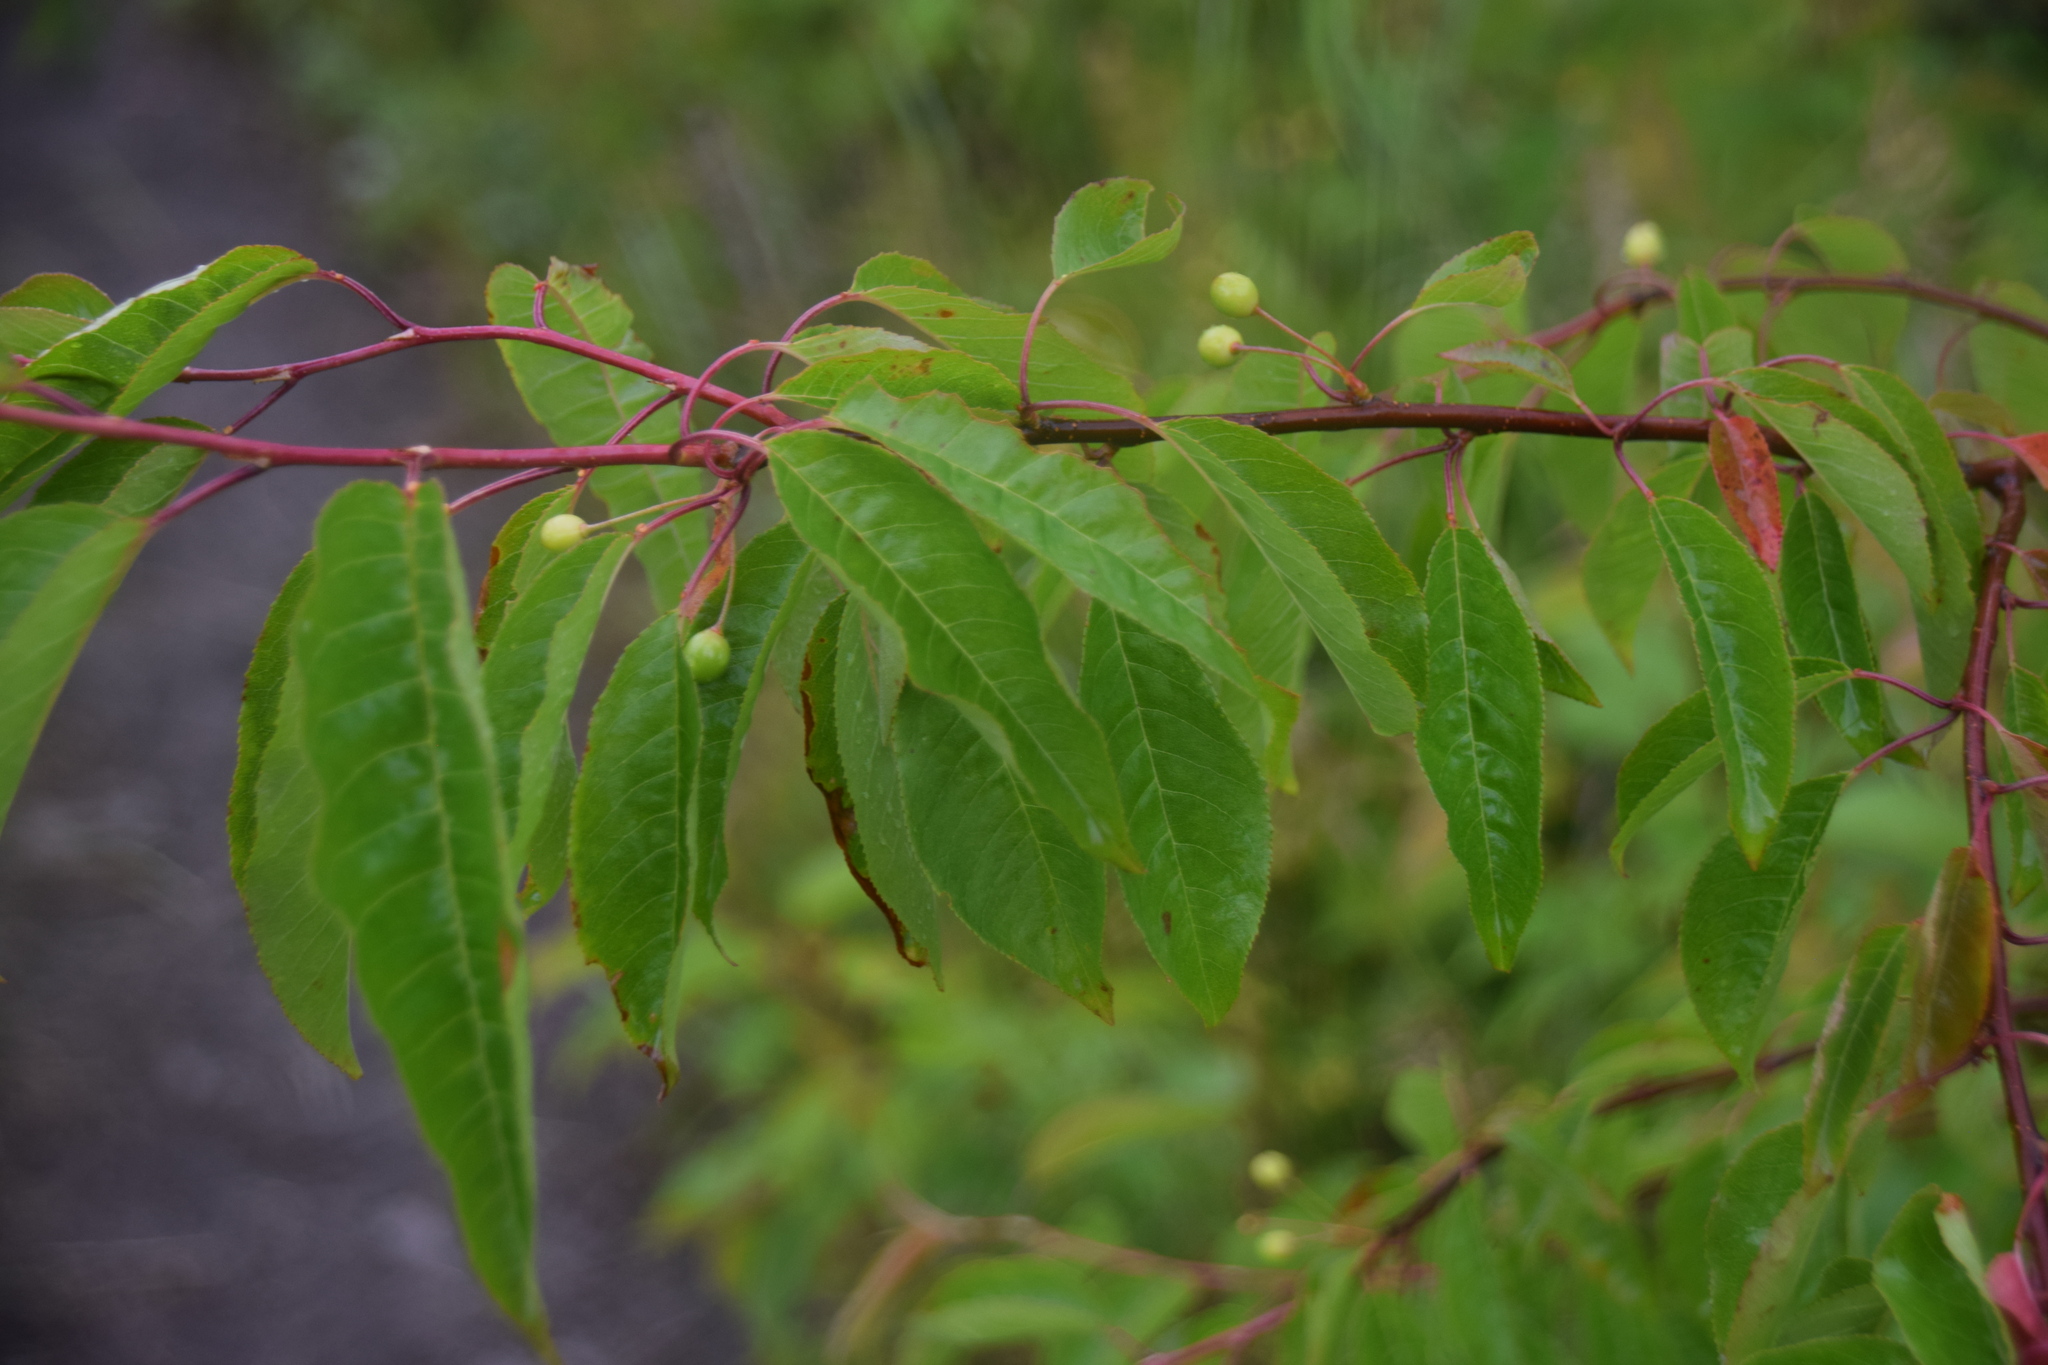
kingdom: Plantae
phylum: Tracheophyta
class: Magnoliopsida
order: Rosales
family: Rosaceae
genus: Prunus
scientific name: Prunus pensylvanica
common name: Pin cherry
